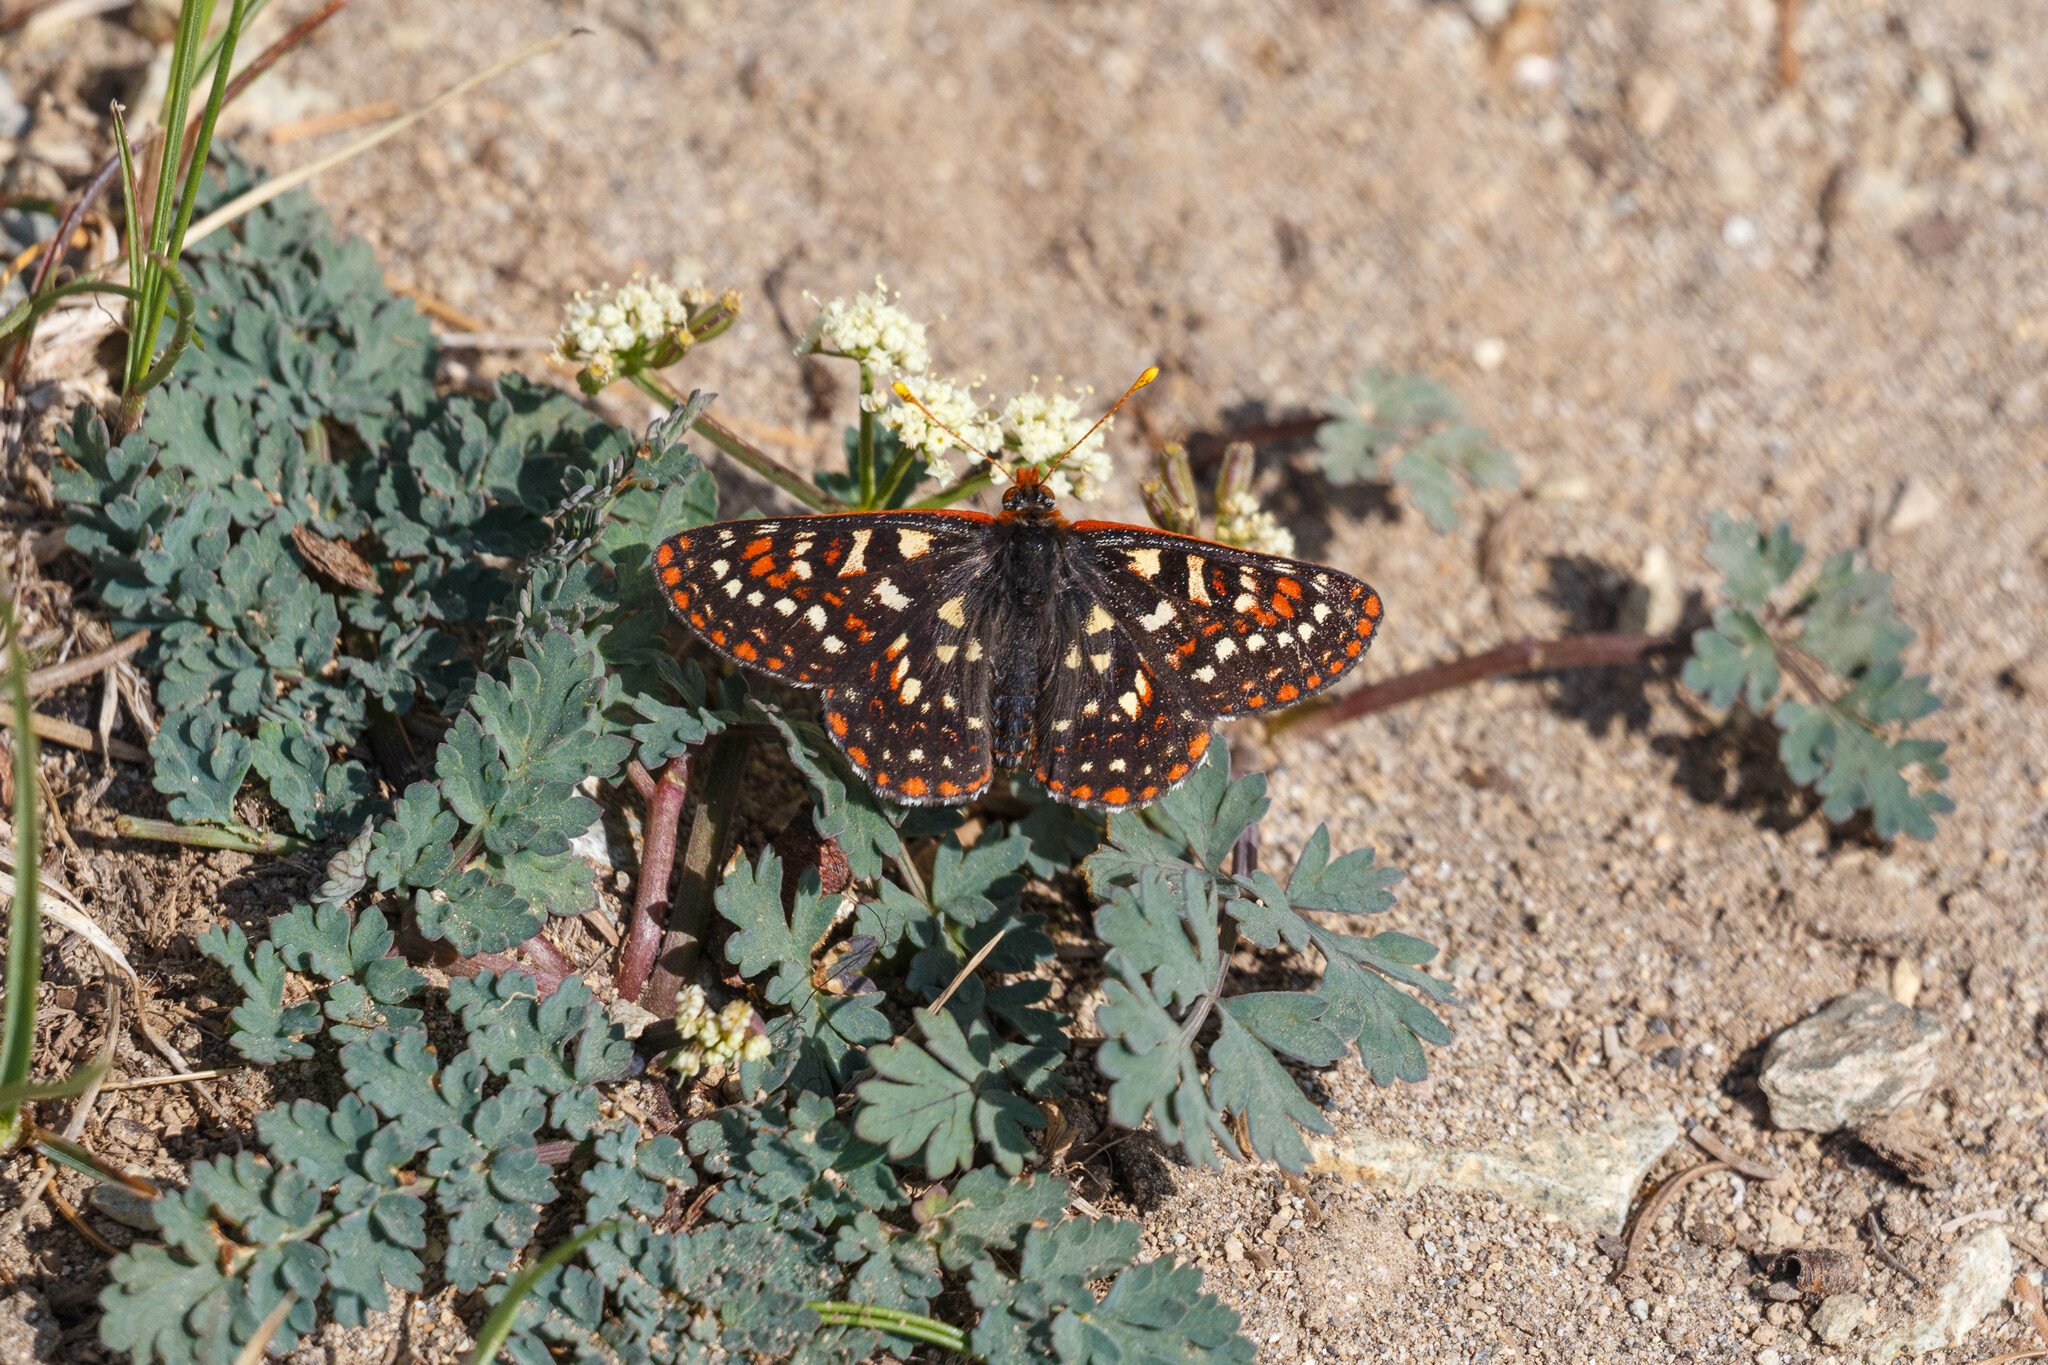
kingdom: Animalia
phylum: Arthropoda
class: Insecta
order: Lepidoptera
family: Nymphalidae
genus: Occidryas
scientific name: Occidryas colon
